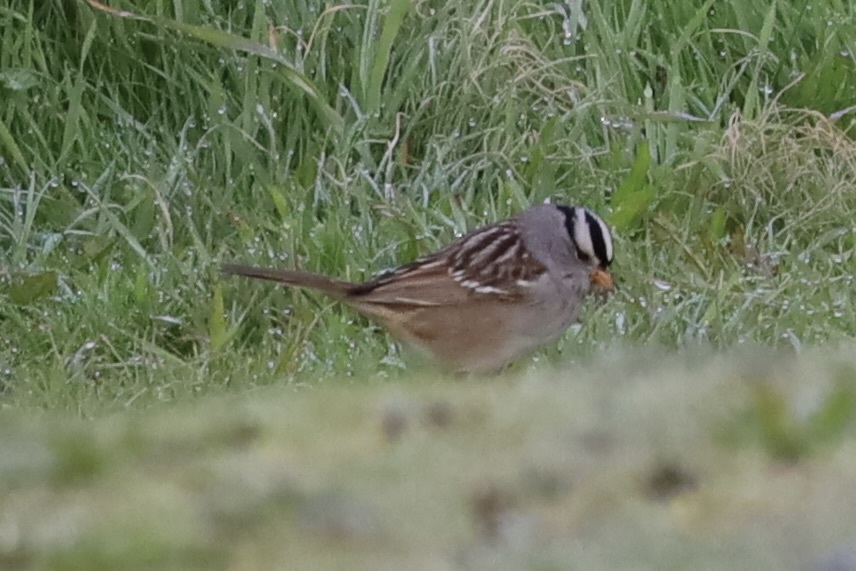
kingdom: Animalia
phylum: Chordata
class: Aves
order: Passeriformes
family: Passerellidae
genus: Zonotrichia
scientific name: Zonotrichia leucophrys
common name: White-crowned sparrow
